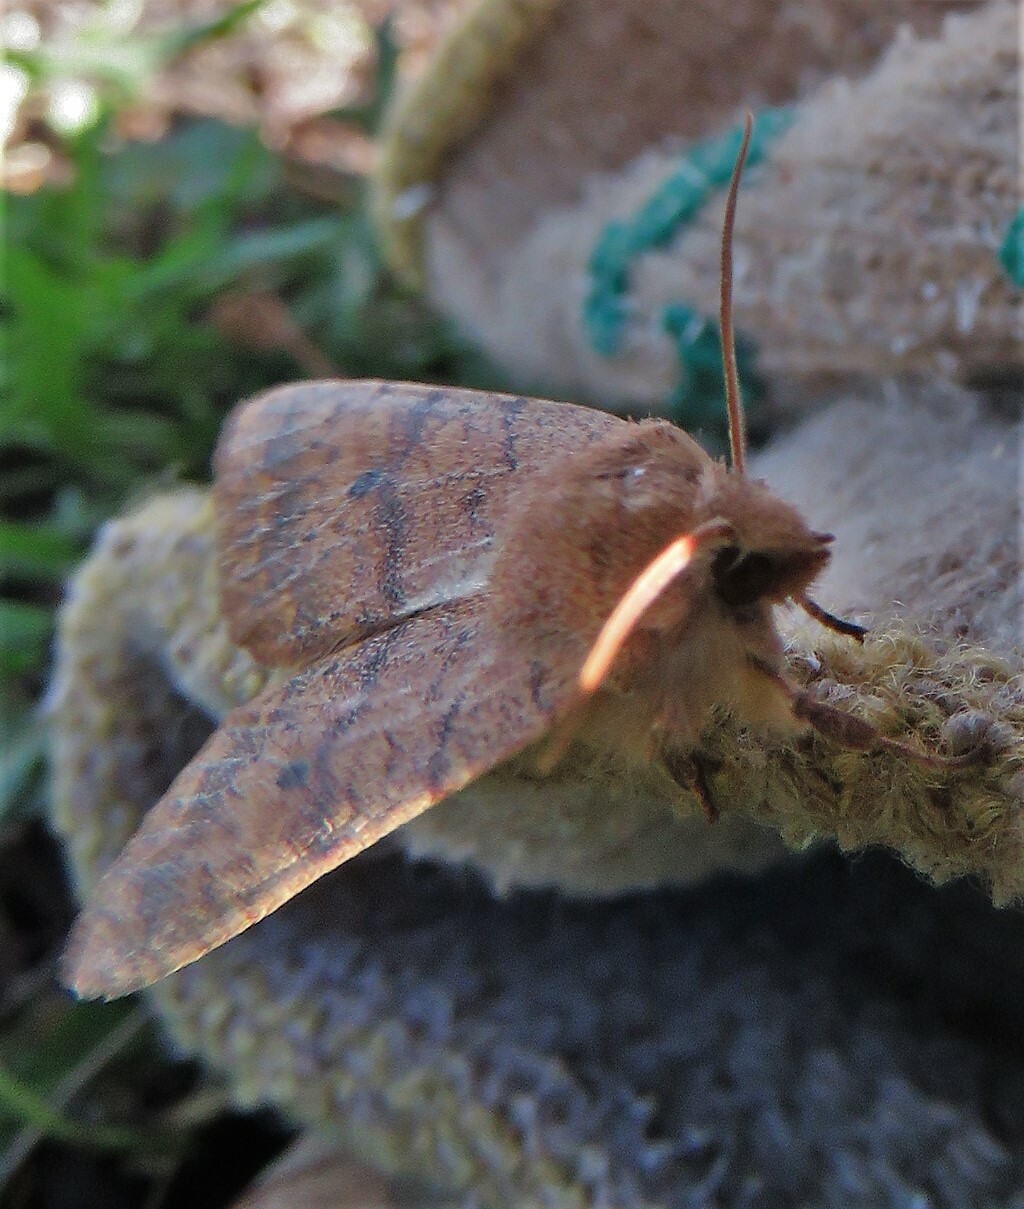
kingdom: Animalia
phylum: Arthropoda
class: Insecta
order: Lepidoptera
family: Noctuidae
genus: Agrochola
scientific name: Agrochola bicolorago
